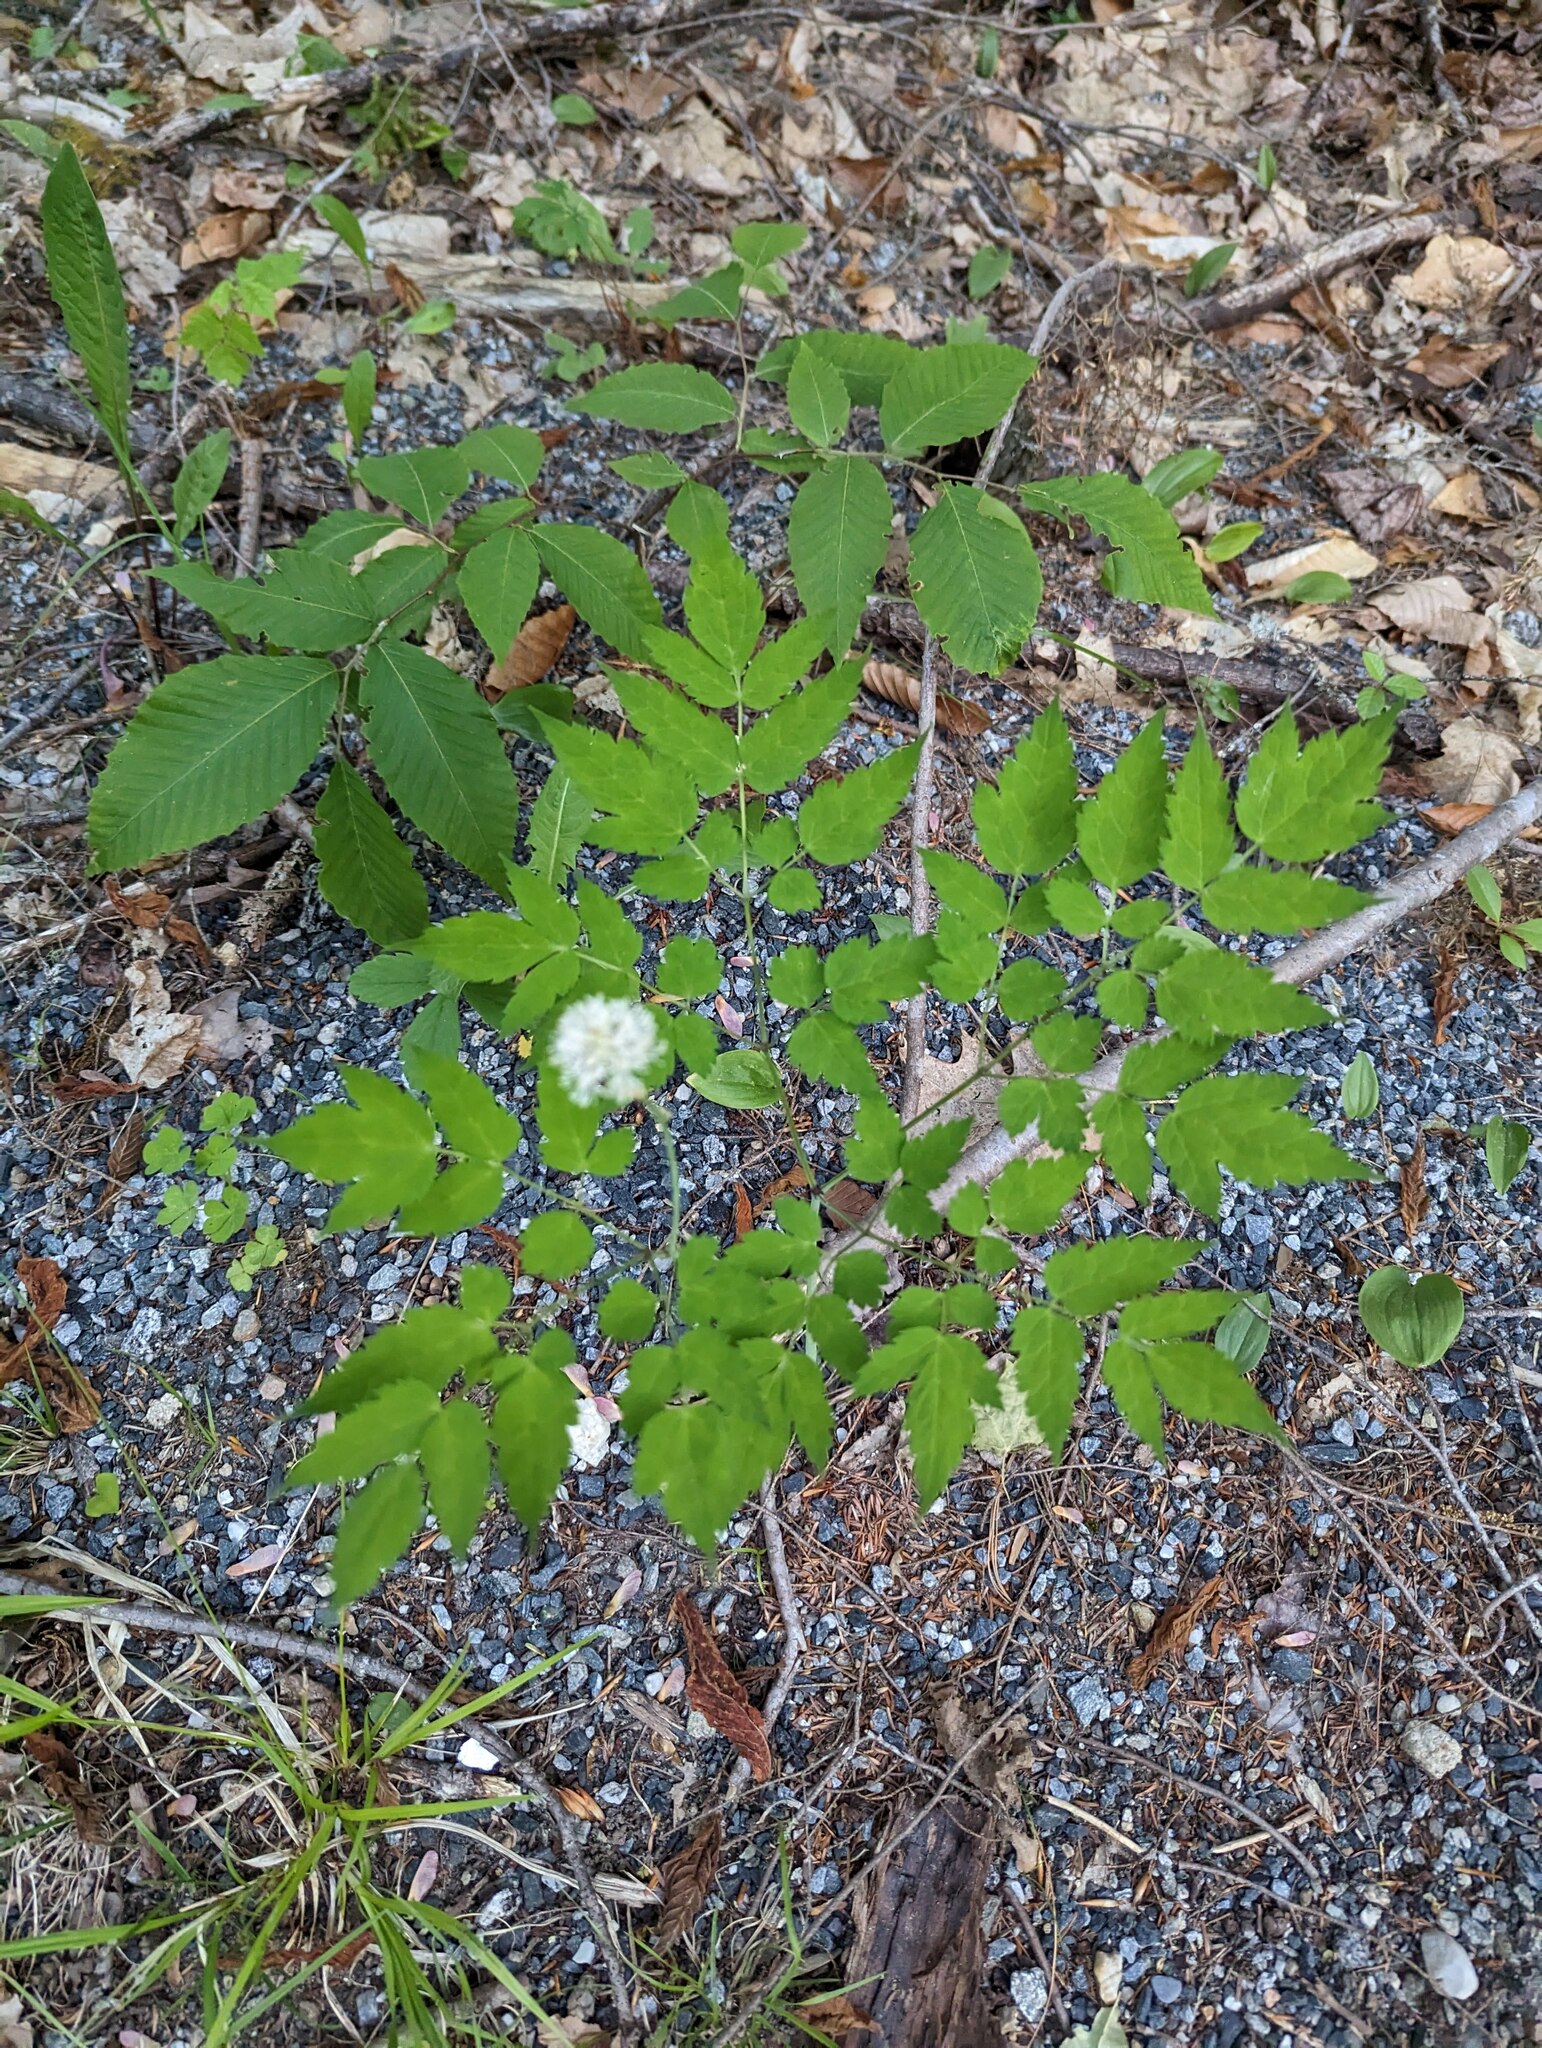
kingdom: Plantae
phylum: Tracheophyta
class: Magnoliopsida
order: Ranunculales
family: Ranunculaceae
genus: Actaea
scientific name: Actaea pachypoda
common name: Doll's-eyes
